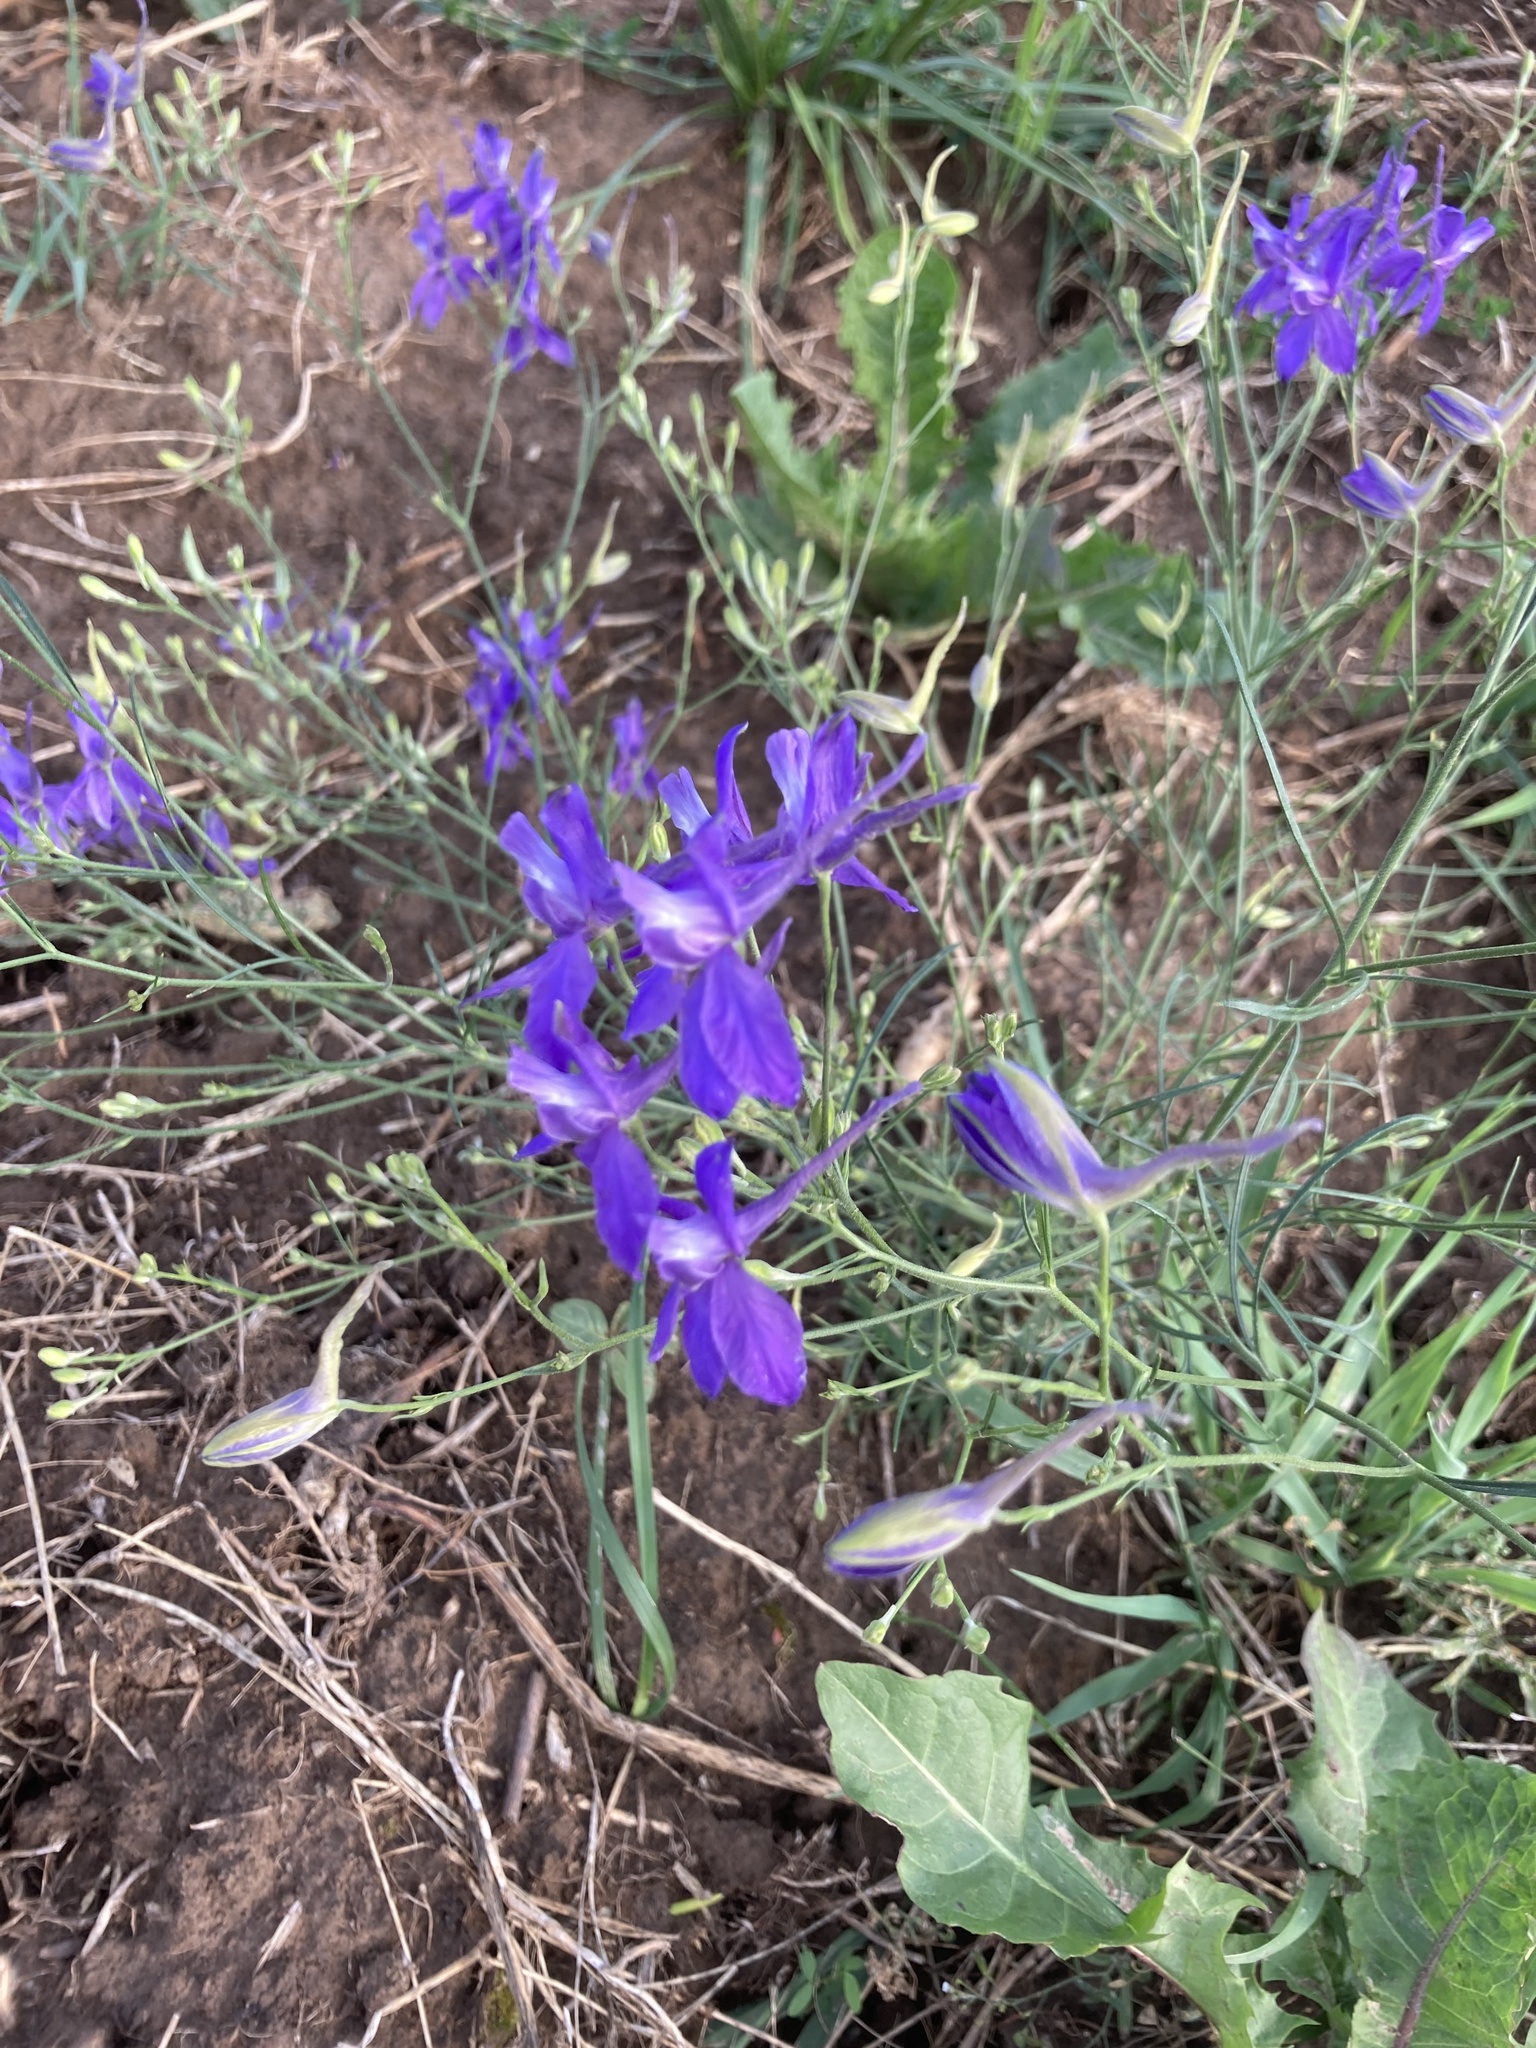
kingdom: Plantae
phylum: Tracheophyta
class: Magnoliopsida
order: Ranunculales
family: Ranunculaceae
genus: Delphinium
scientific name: Delphinium consolida
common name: Branching larkspur
